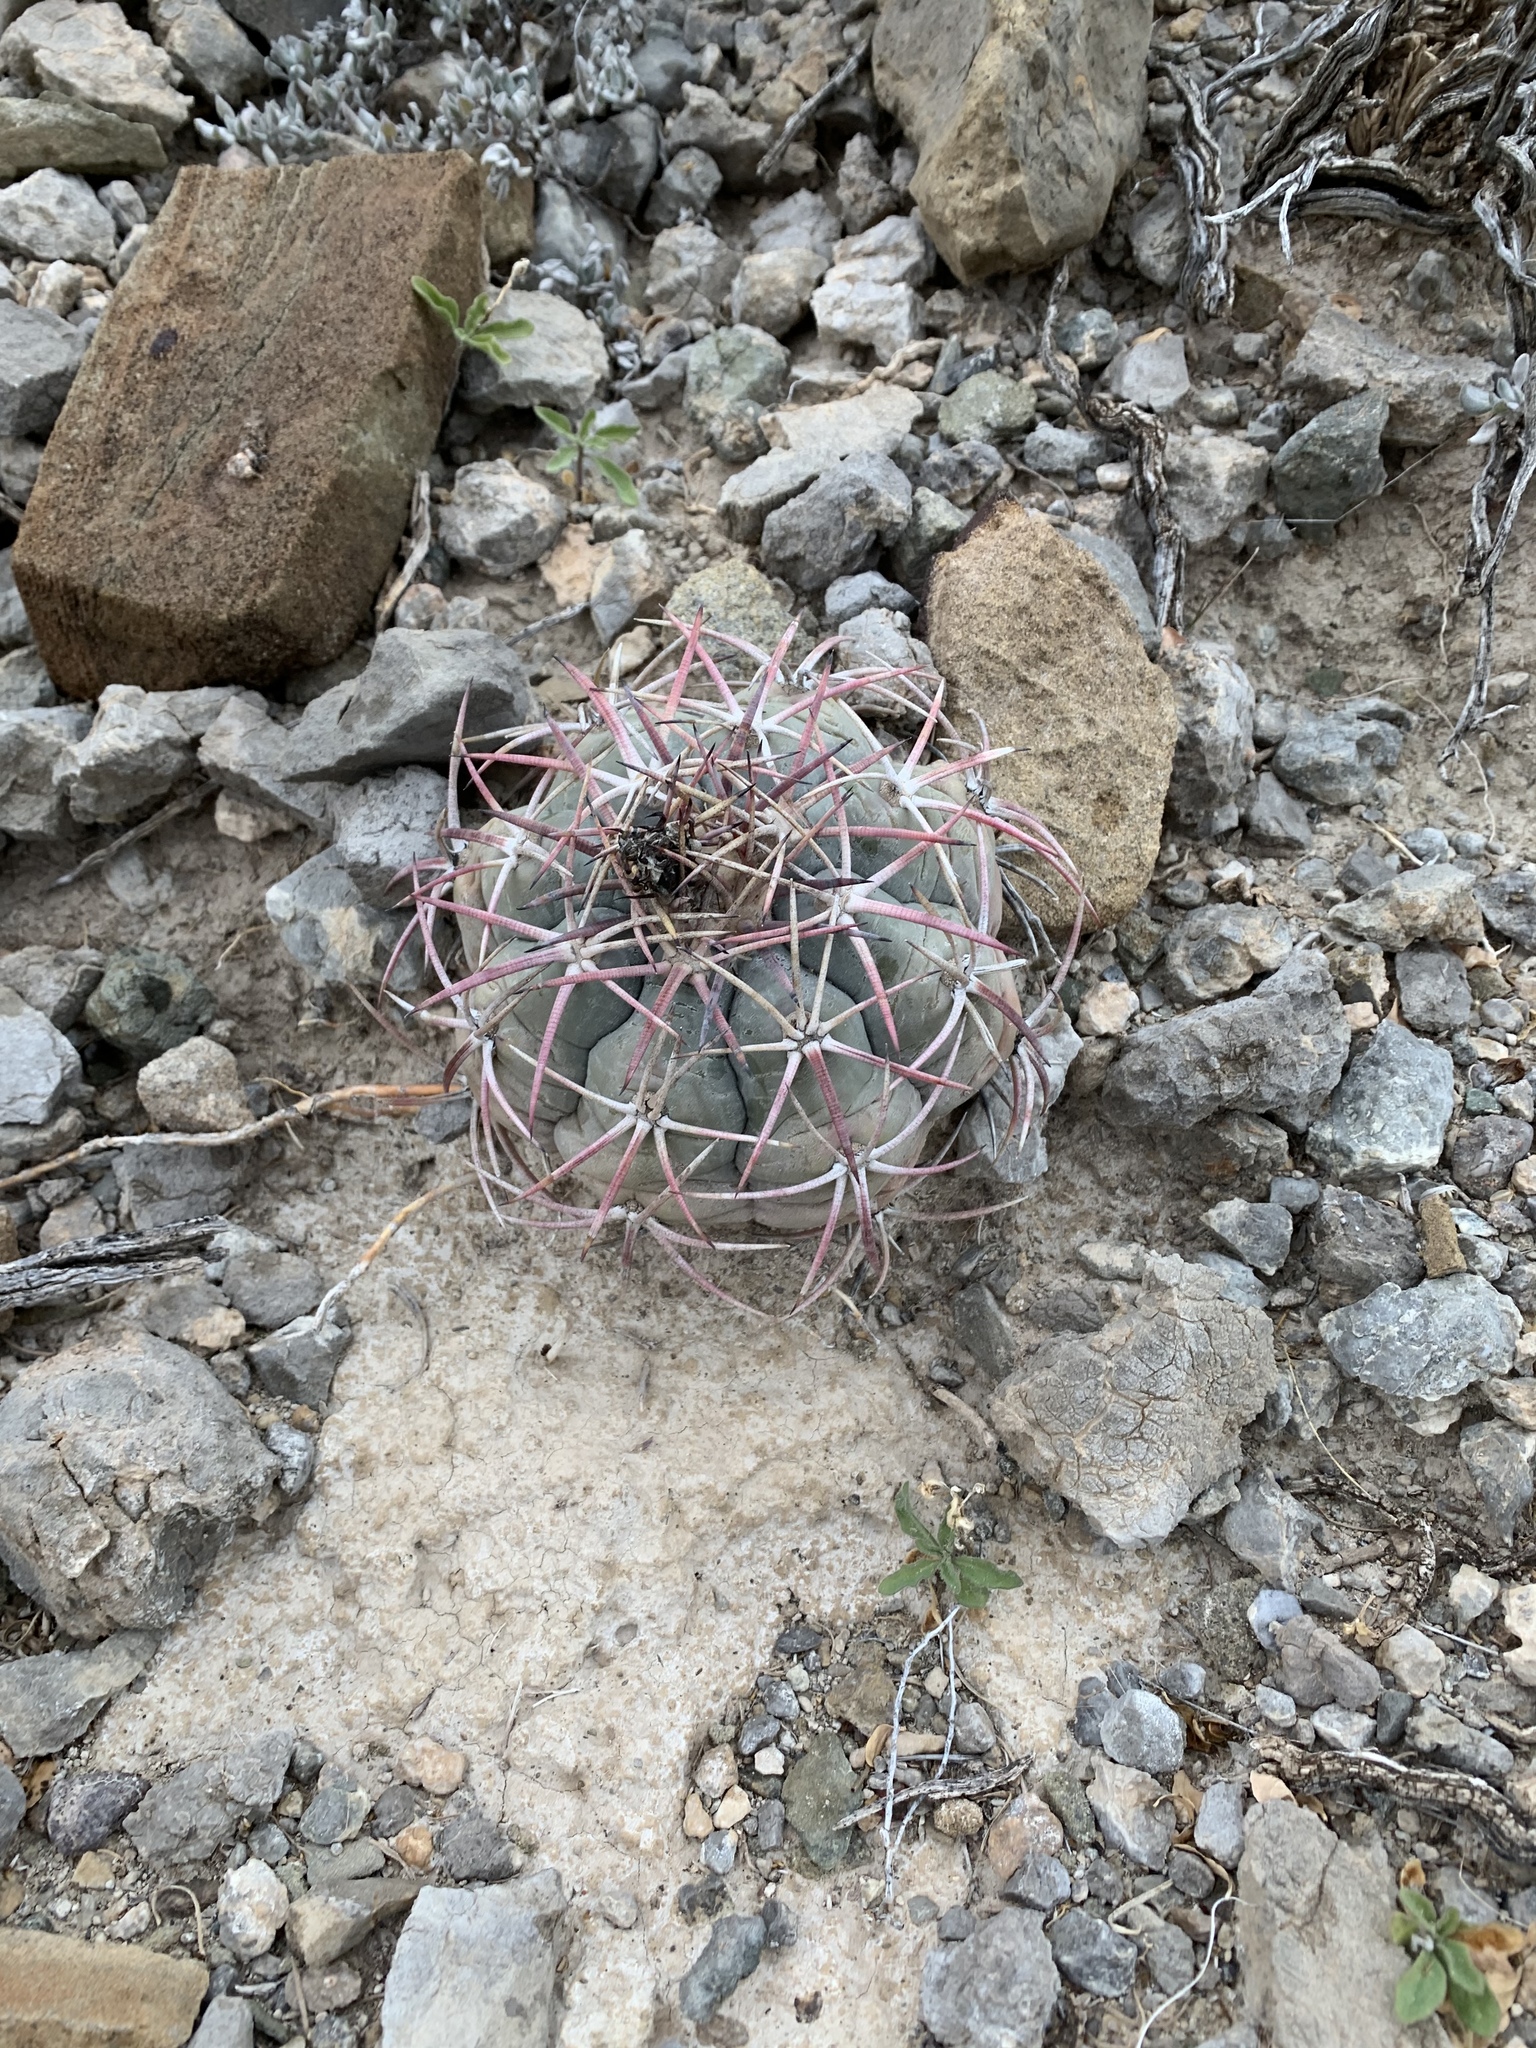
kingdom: Plantae
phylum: Tracheophyta
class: Magnoliopsida
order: Caryophyllales
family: Cactaceae
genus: Echinocactus
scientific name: Echinocactus horizonthalonius
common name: Devilshead
